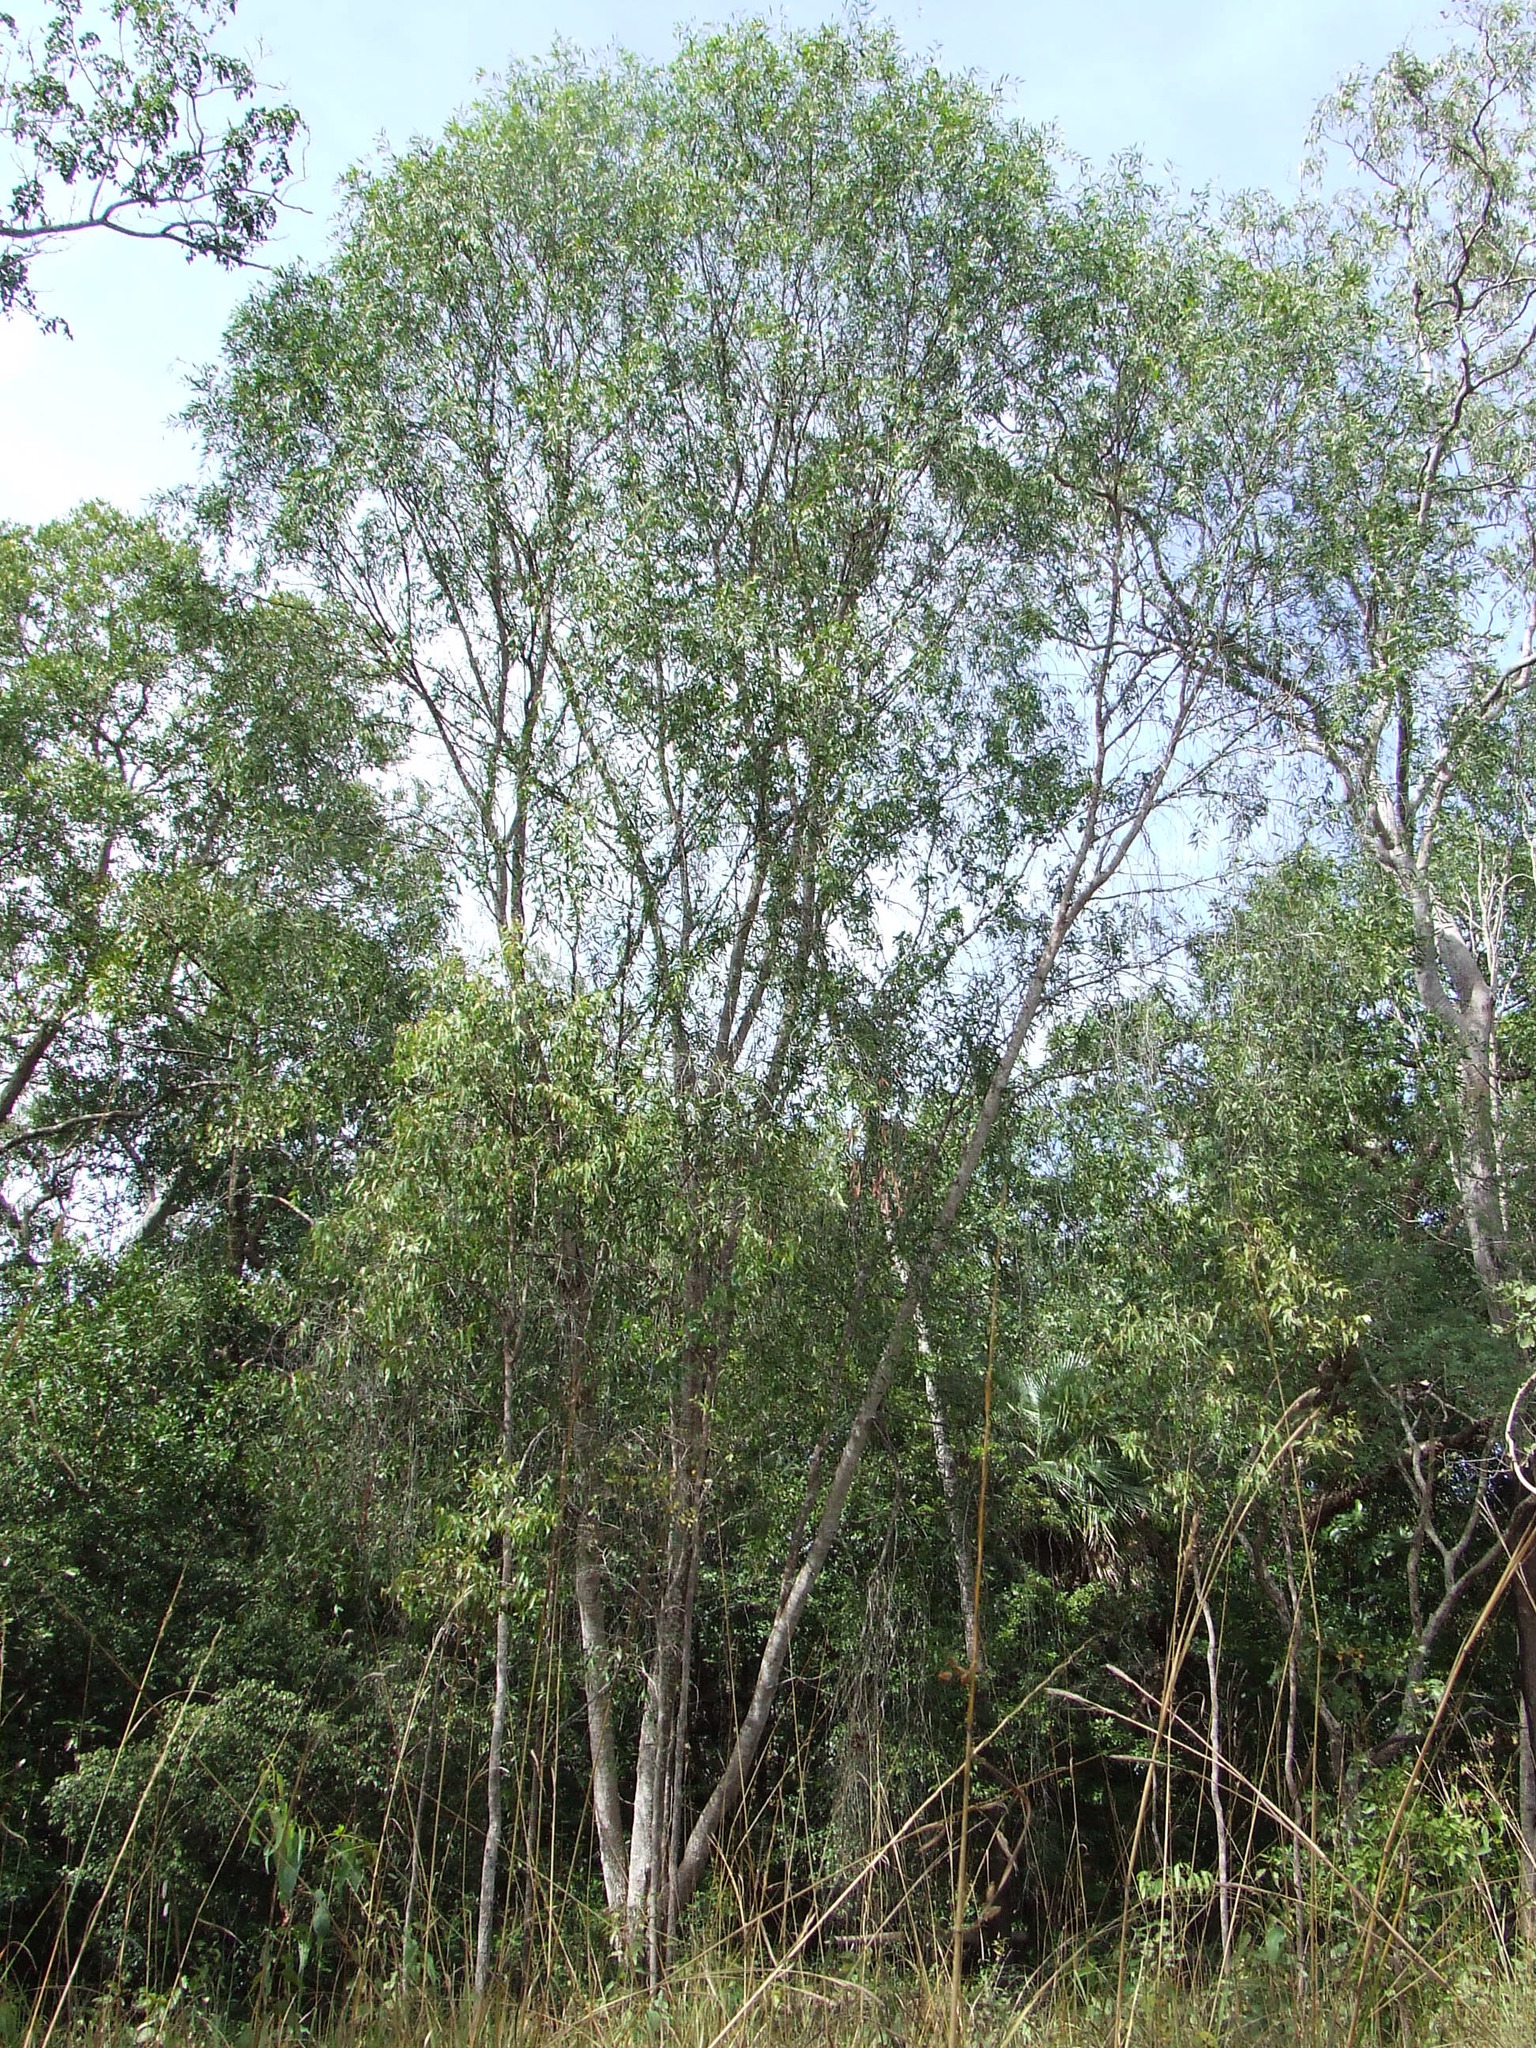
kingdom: Plantae
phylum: Tracheophyta
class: Magnoliopsida
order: Fabales
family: Fabaceae
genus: Acacia
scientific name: Acacia fleckeri
